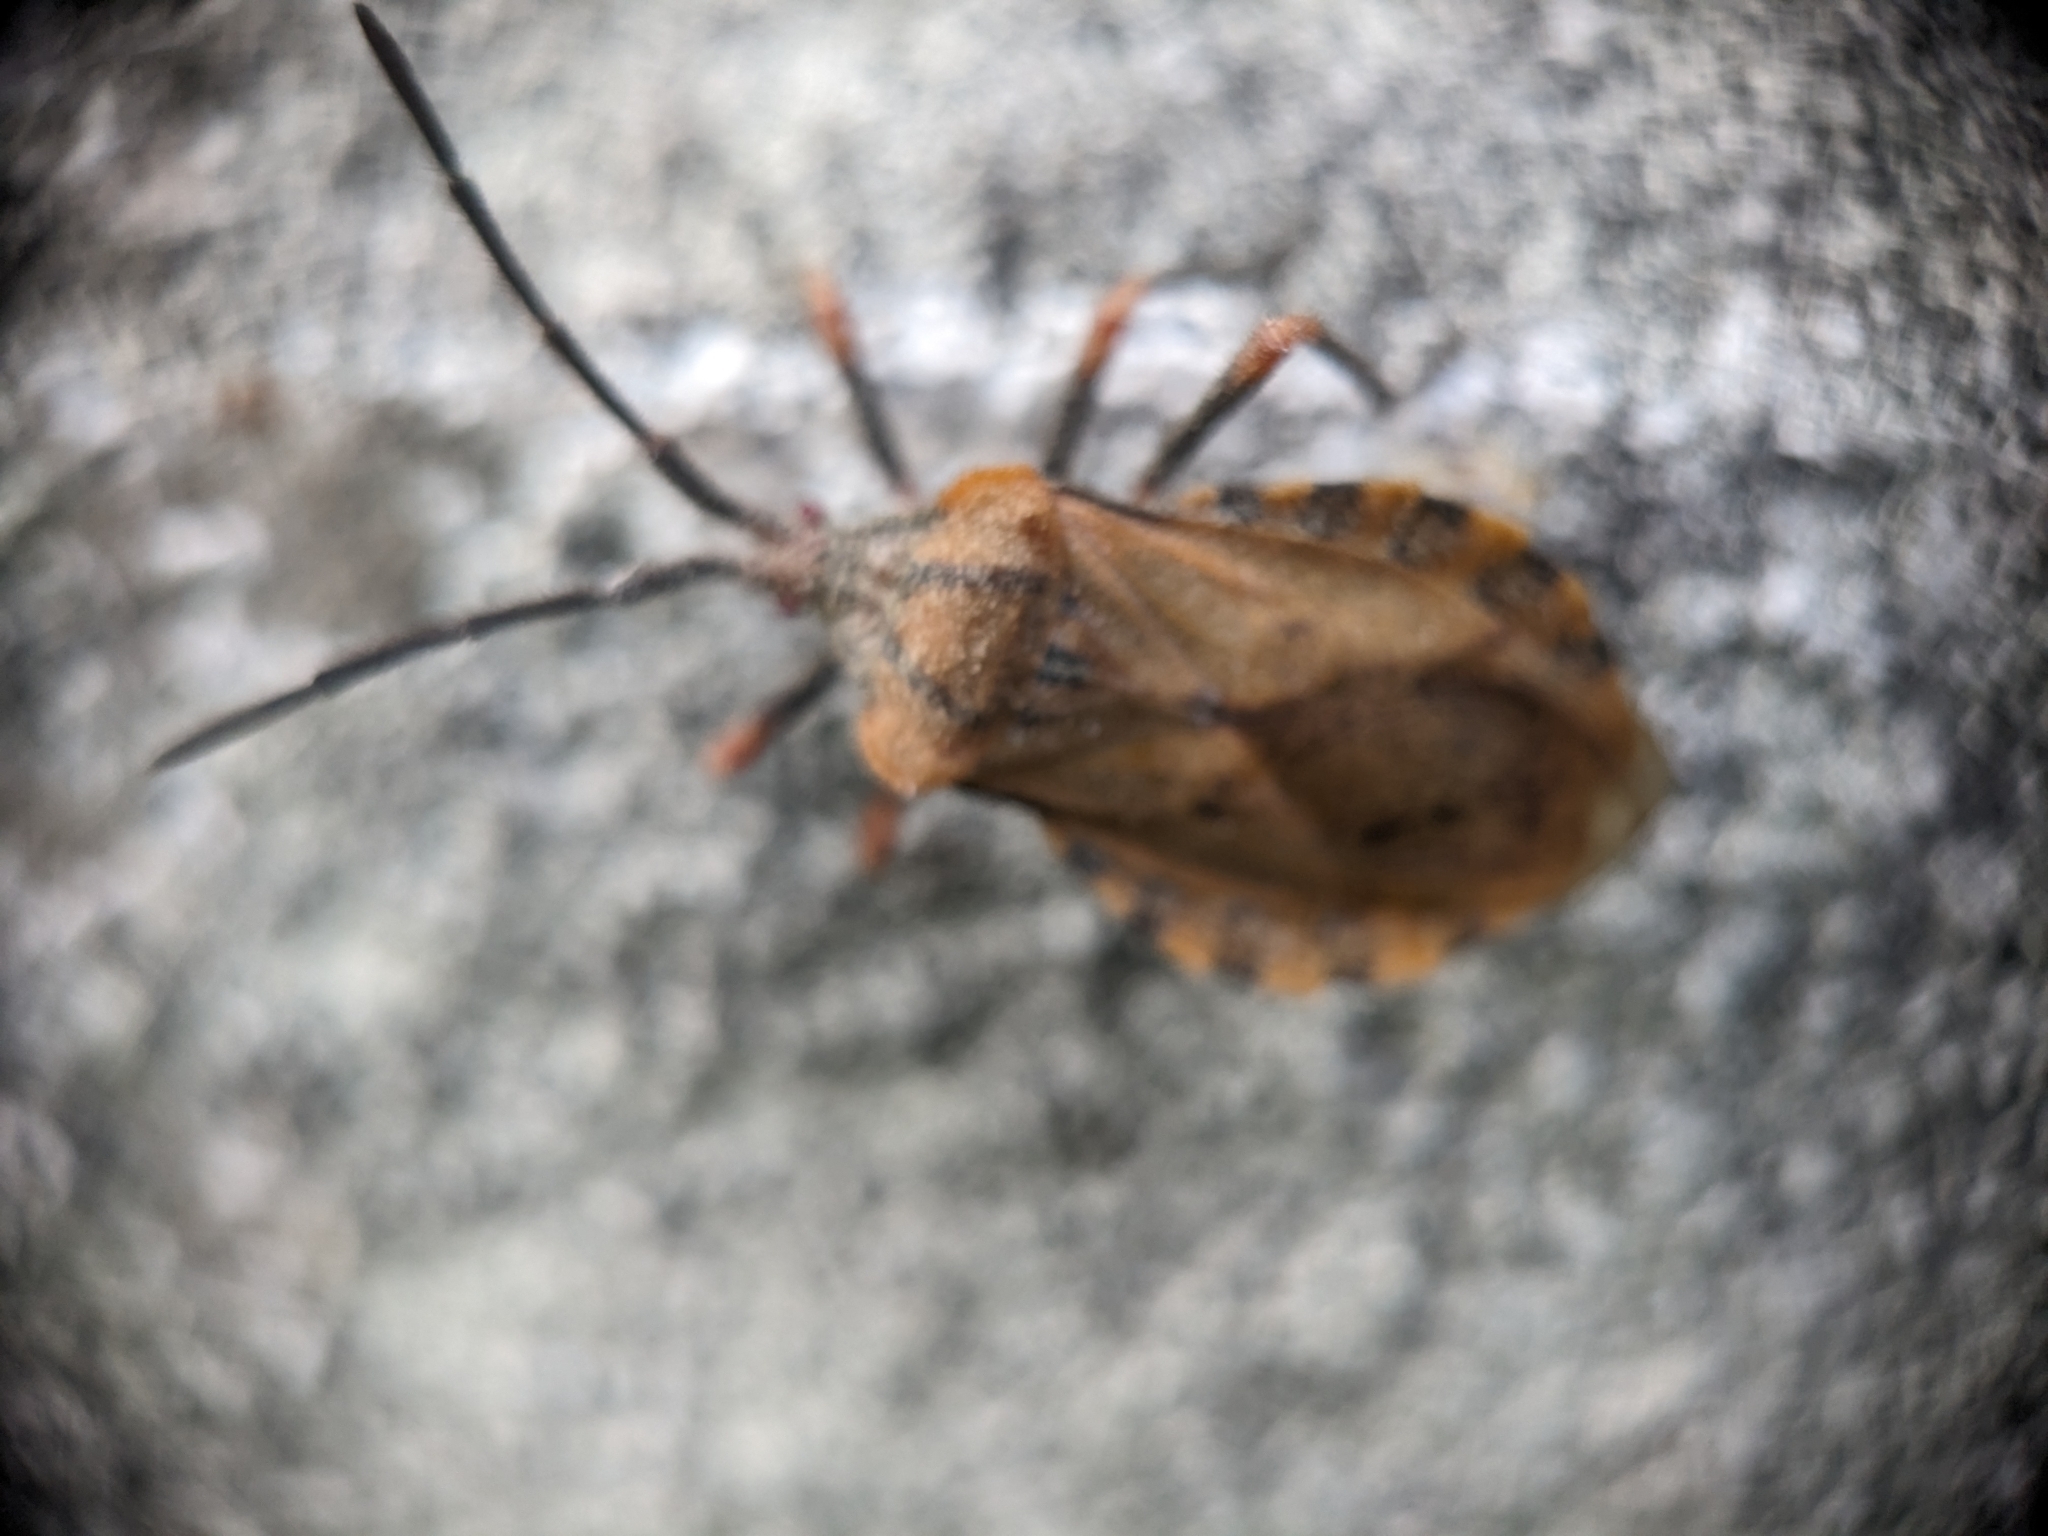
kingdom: Animalia
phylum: Arthropoda
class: Insecta
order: Hemiptera
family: Coreidae
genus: Spartocera
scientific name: Spartocera fusca
